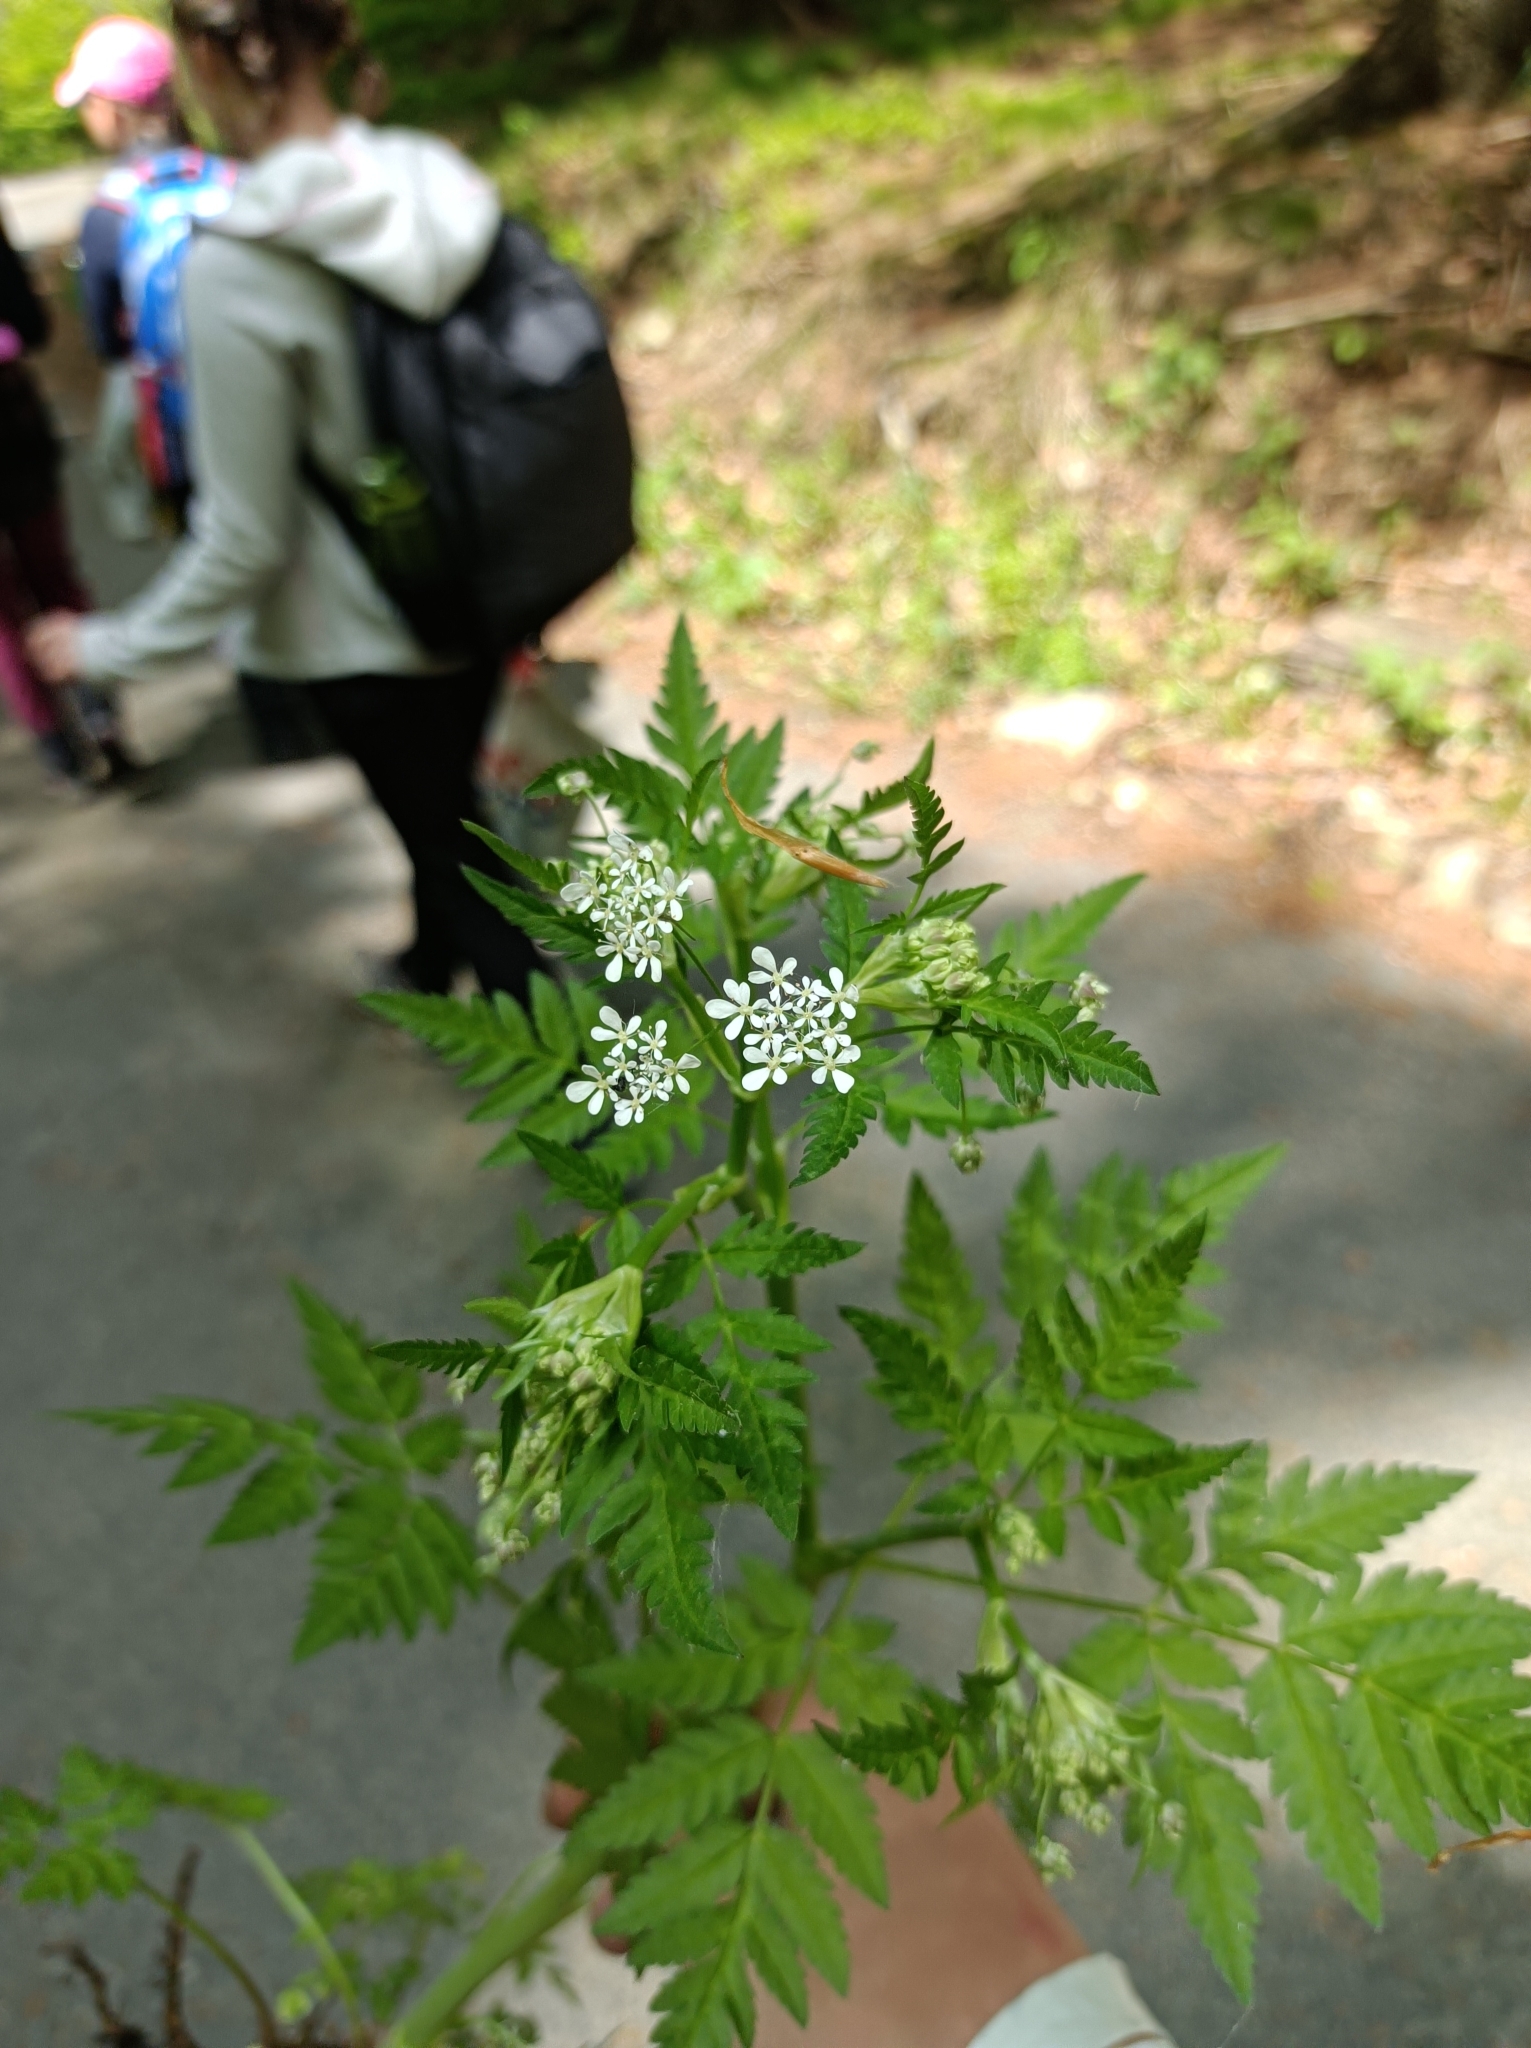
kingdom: Plantae
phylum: Tracheophyta
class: Magnoliopsida
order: Apiales
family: Apiaceae
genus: Anthriscus
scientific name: Anthriscus sylvestris
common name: Cow parsley
